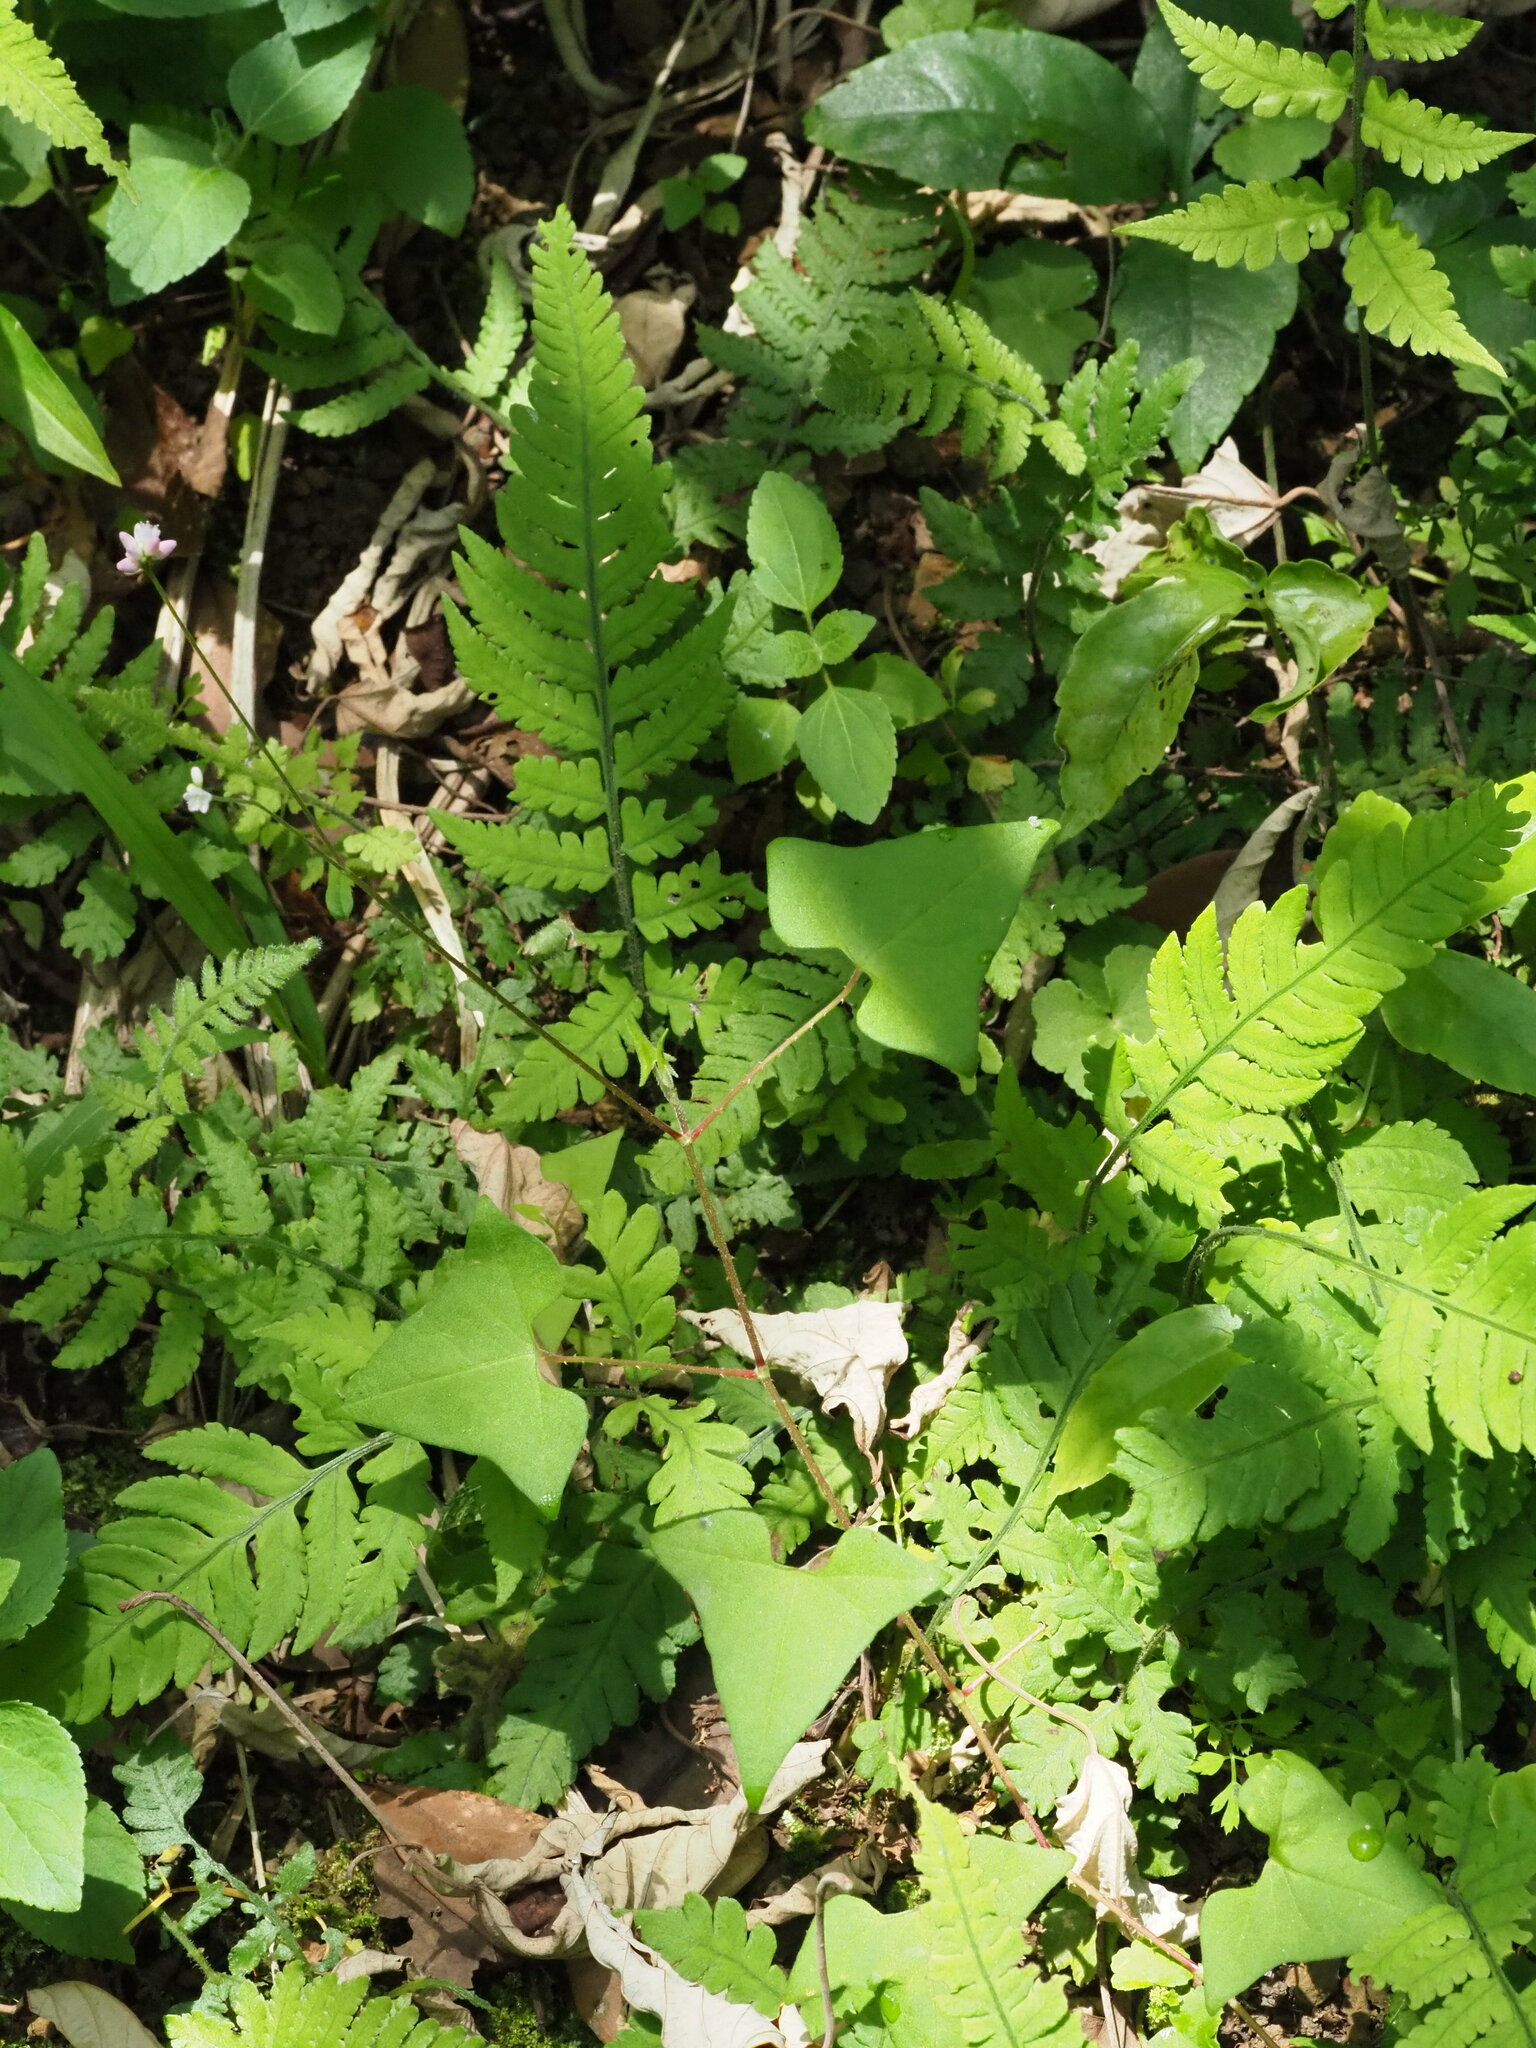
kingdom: Plantae
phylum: Tracheophyta
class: Magnoliopsida
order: Caryophyllales
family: Polygonaceae
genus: Persicaria
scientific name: Persicaria senticosa
